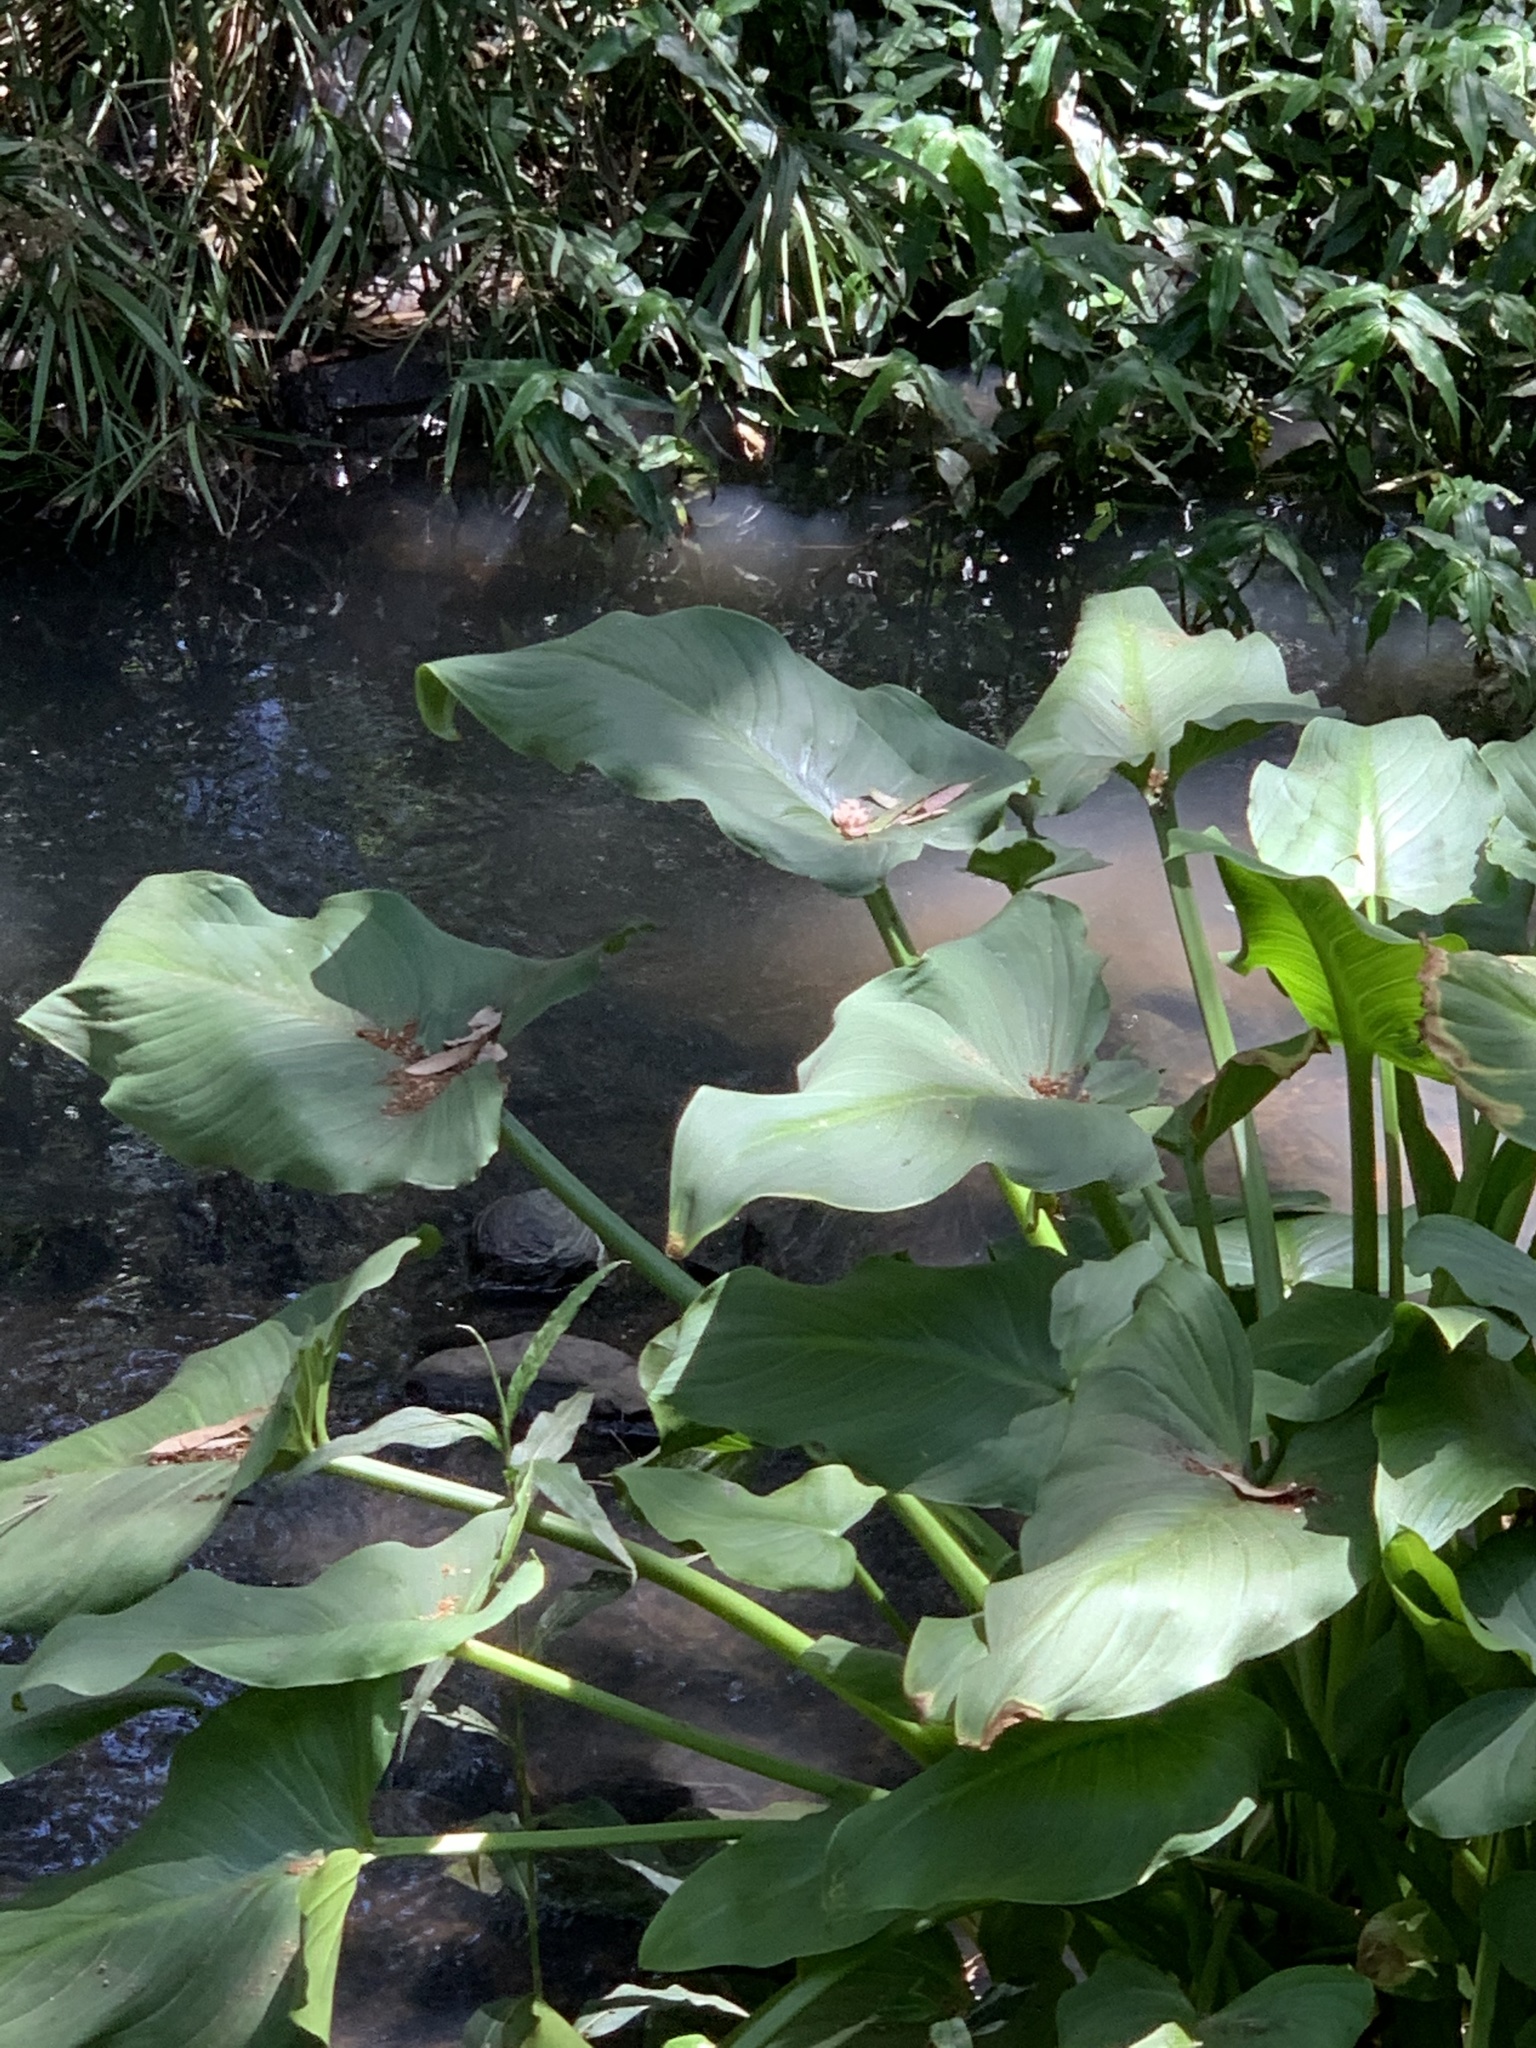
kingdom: Plantae
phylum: Tracheophyta
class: Liliopsida
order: Alismatales
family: Araceae
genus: Zantedeschia
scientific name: Zantedeschia aethiopica
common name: Altar-lily
